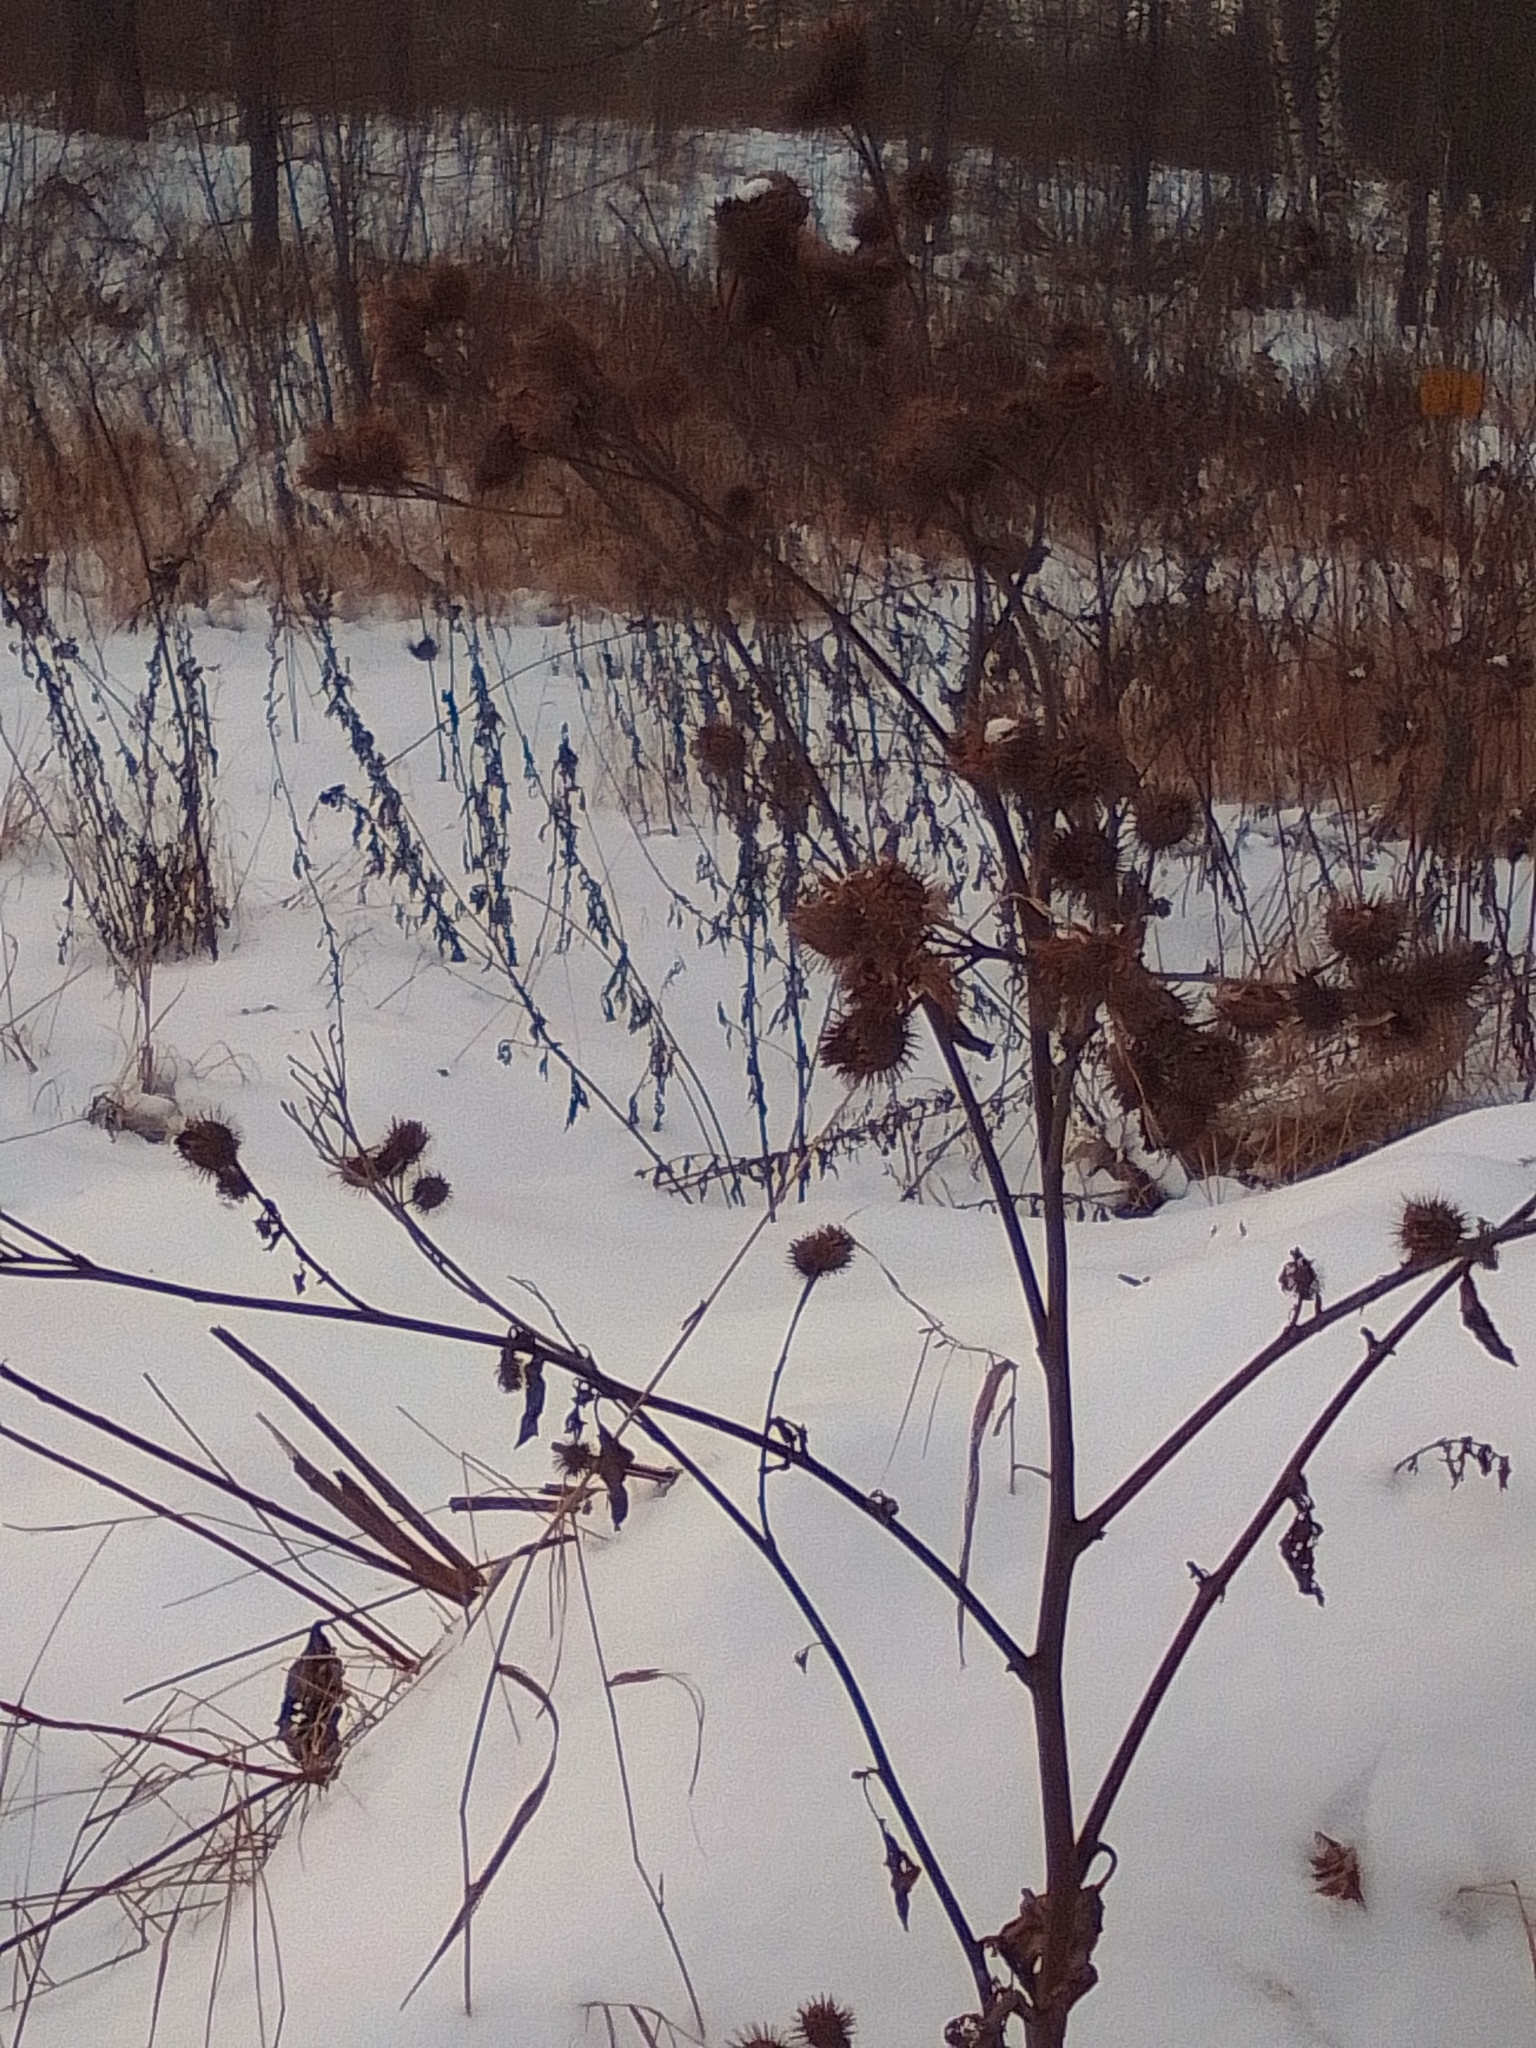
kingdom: Plantae
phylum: Tracheophyta
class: Magnoliopsida
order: Asterales
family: Asteraceae
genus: Arctium
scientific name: Arctium lappa
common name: Greater burdock
